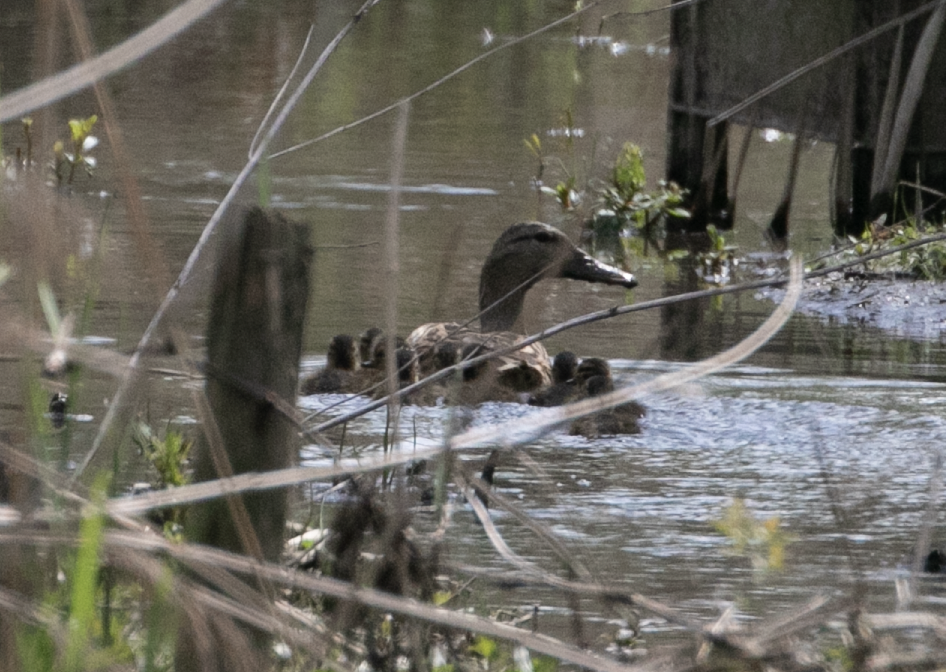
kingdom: Animalia
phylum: Chordata
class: Aves
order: Anseriformes
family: Anatidae
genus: Anas
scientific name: Anas platyrhynchos
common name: Mallard
